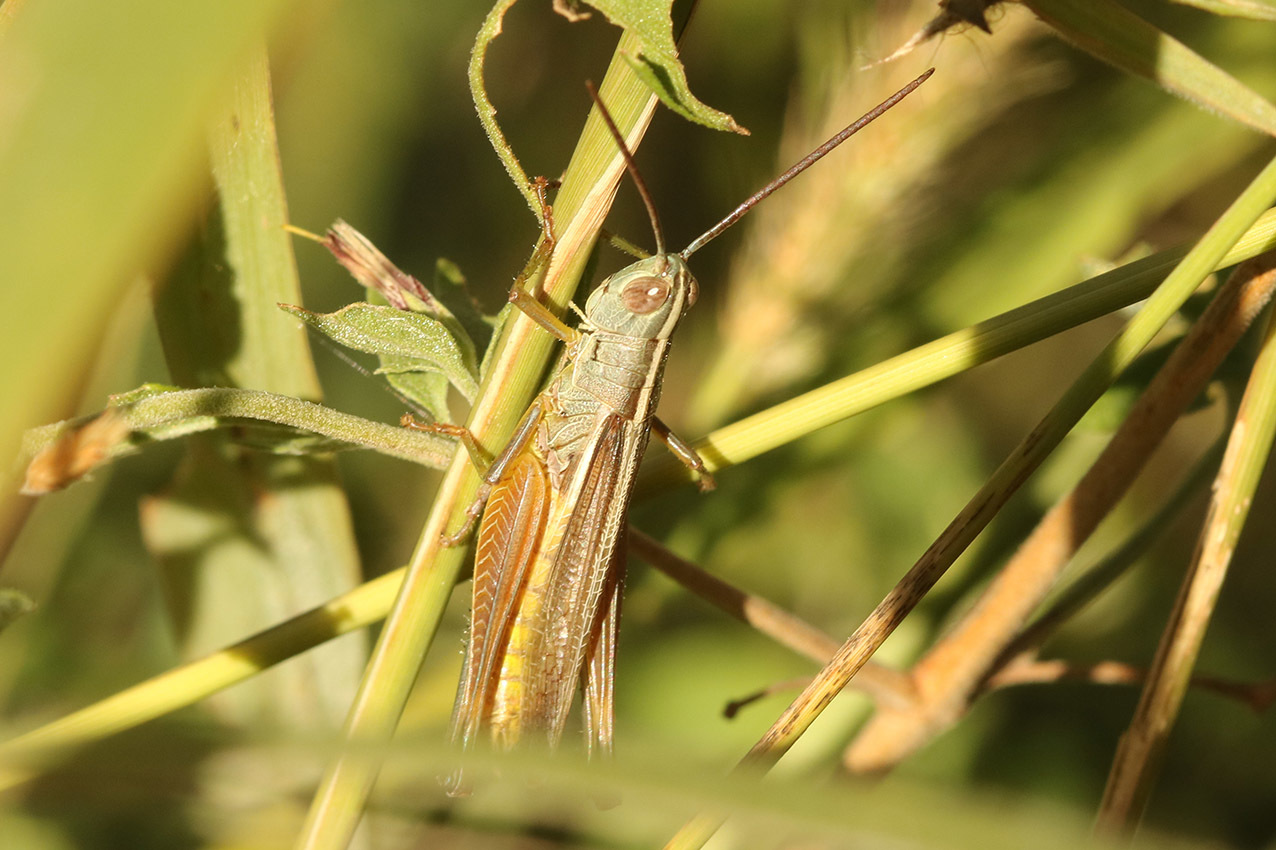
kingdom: Animalia
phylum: Arthropoda
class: Insecta
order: Orthoptera
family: Acrididae
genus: Staurorhectus
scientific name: Staurorhectus longicornis
